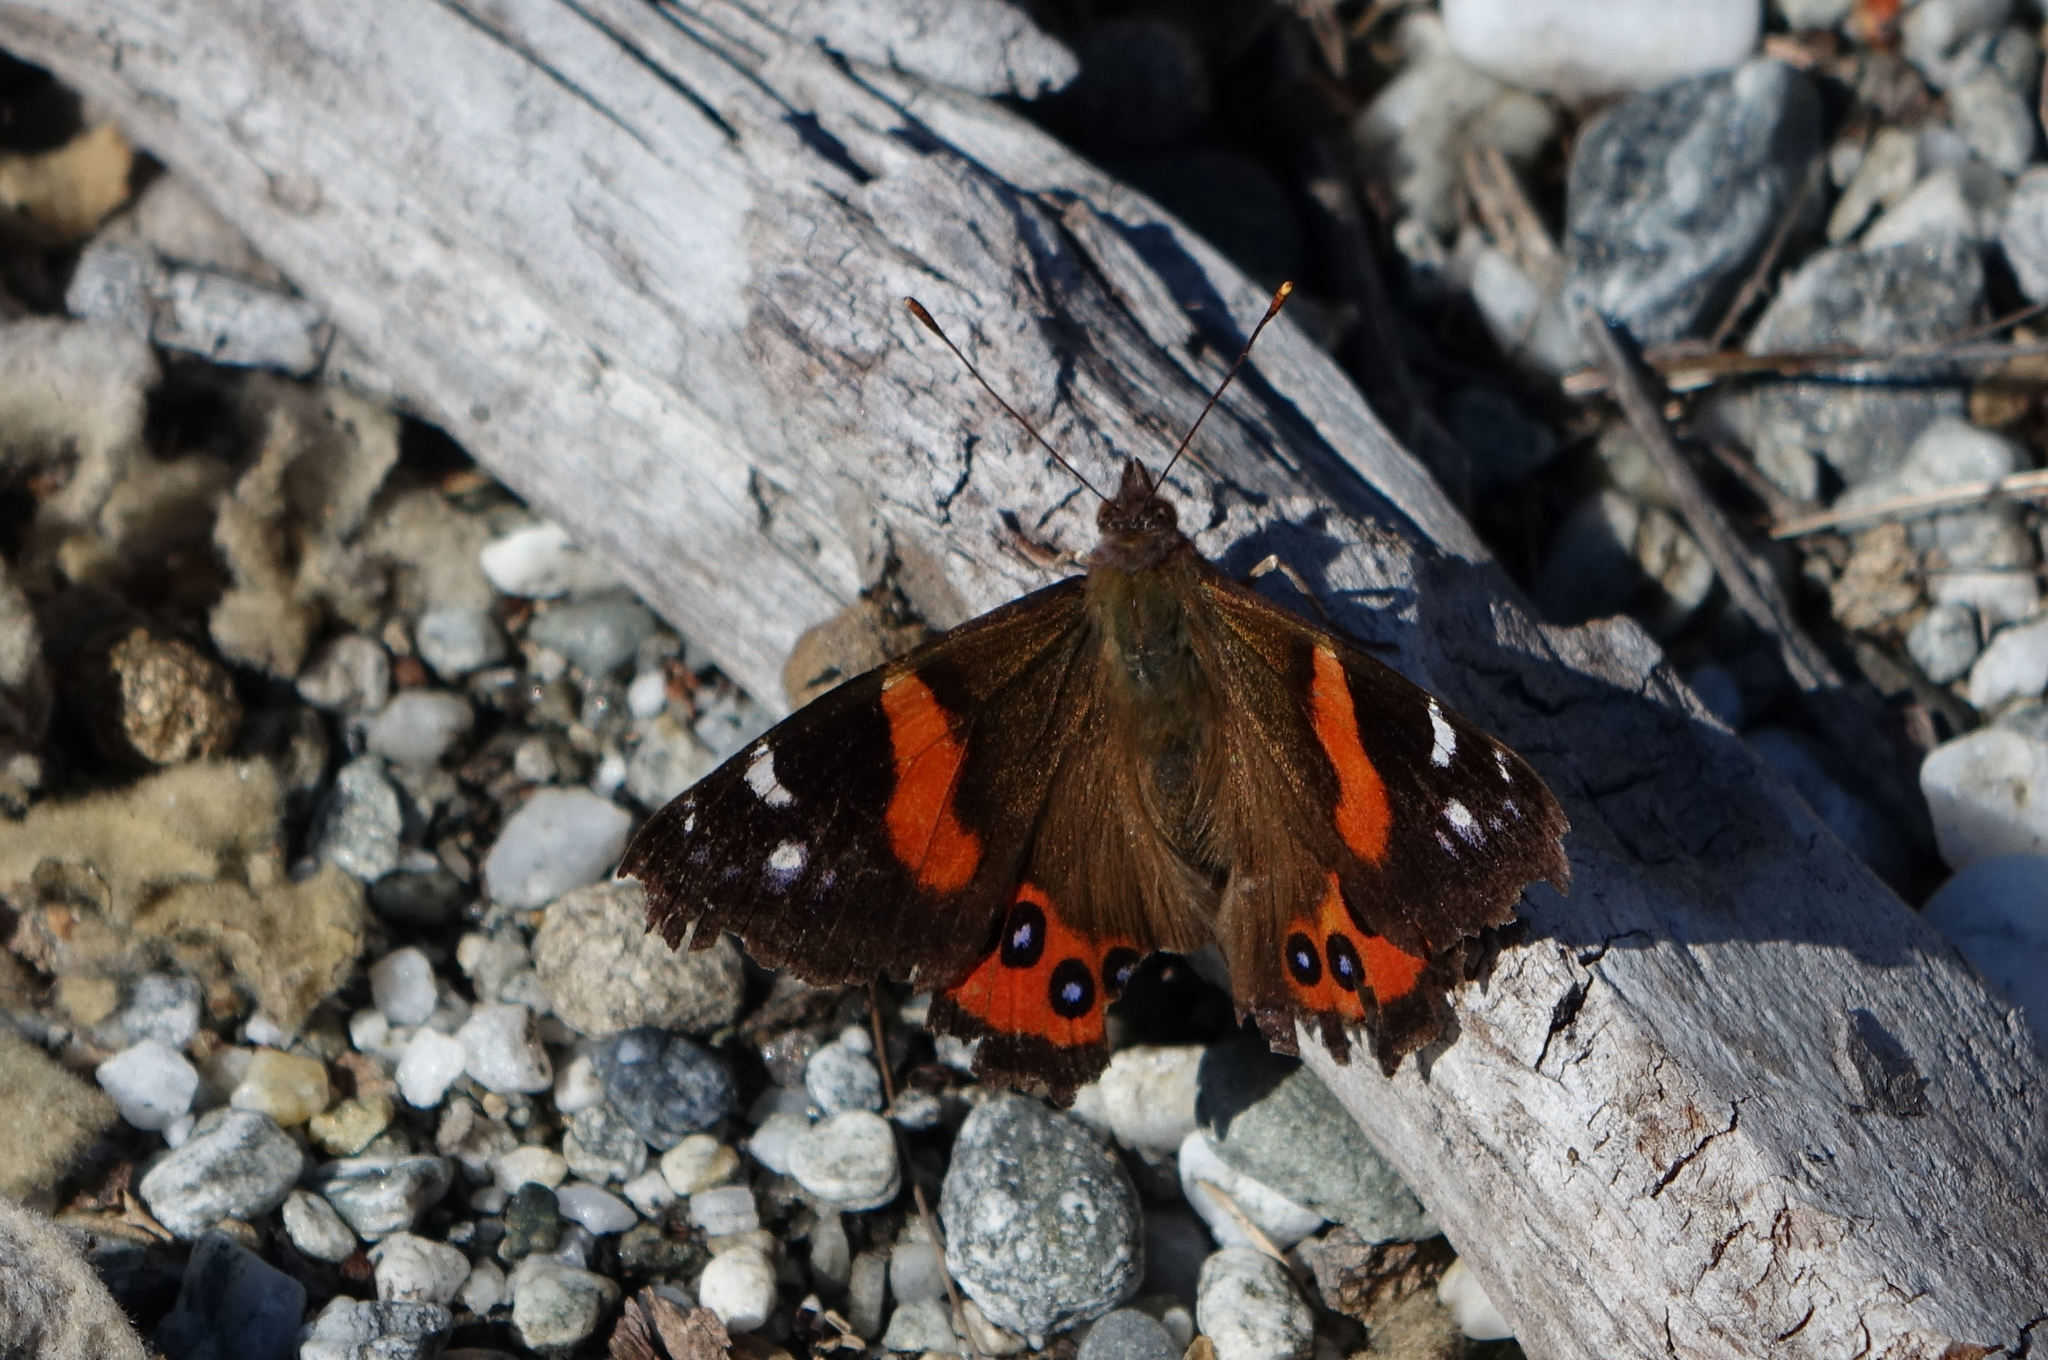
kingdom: Animalia
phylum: Arthropoda
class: Insecta
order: Lepidoptera
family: Nymphalidae
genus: Vanessa
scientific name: Vanessa gonerilla
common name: New zealand red admiral
